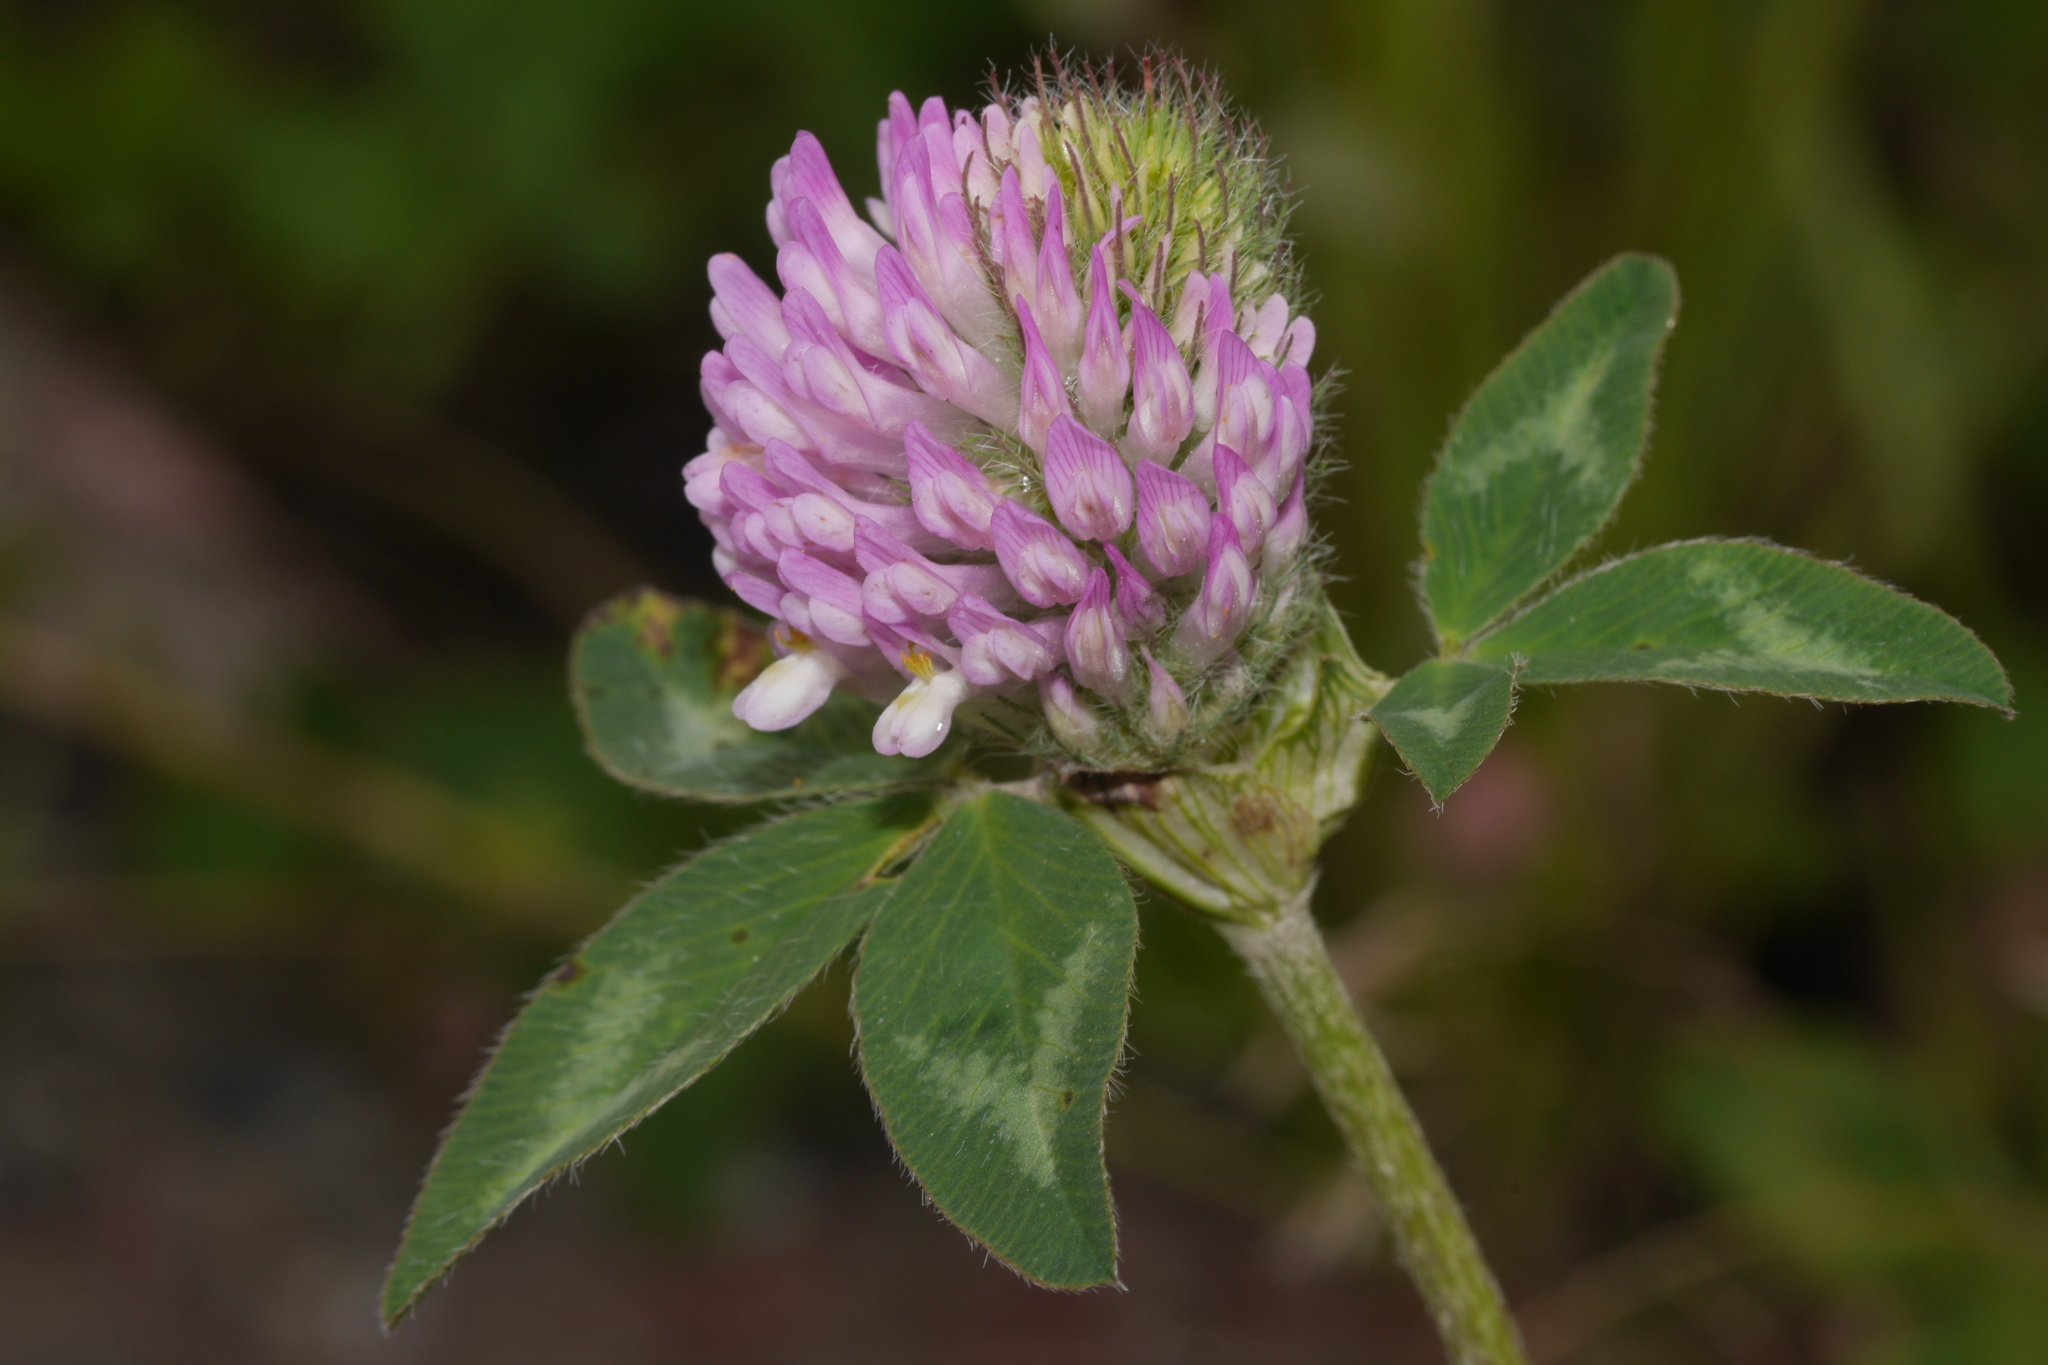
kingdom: Plantae
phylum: Tracheophyta
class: Magnoliopsida
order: Fabales
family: Fabaceae
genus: Trifolium
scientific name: Trifolium pratense
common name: Red clover
